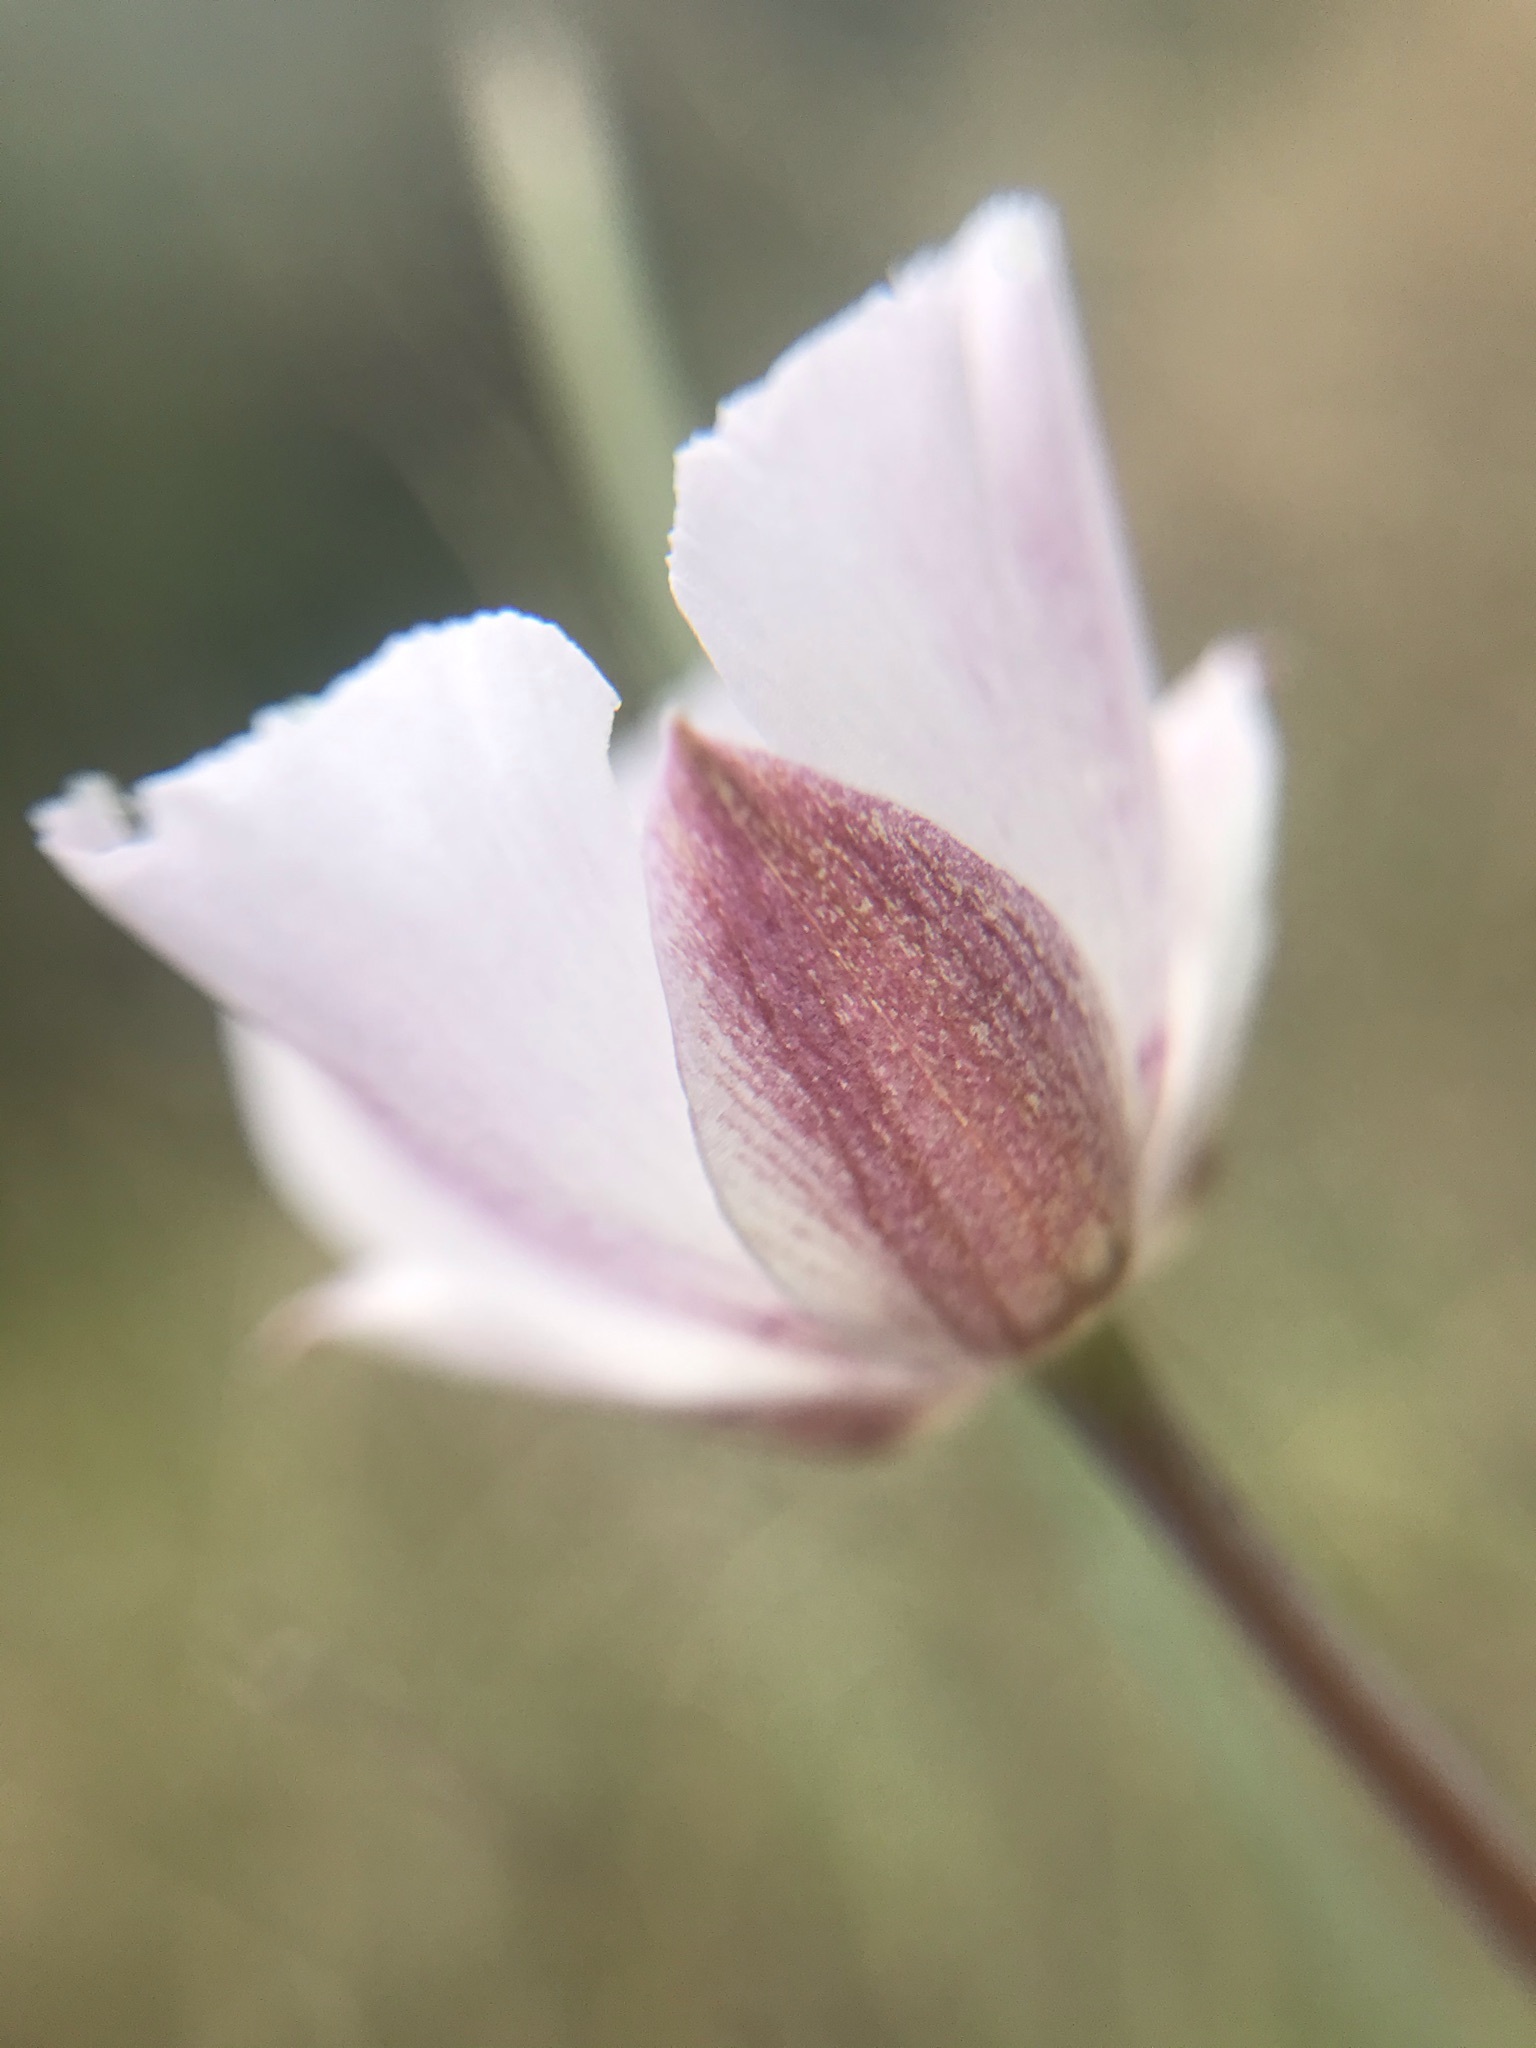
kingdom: Plantae
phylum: Tracheophyta
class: Liliopsida
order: Liliales
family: Liliaceae
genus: Calochortus
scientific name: Calochortus umbellatus
